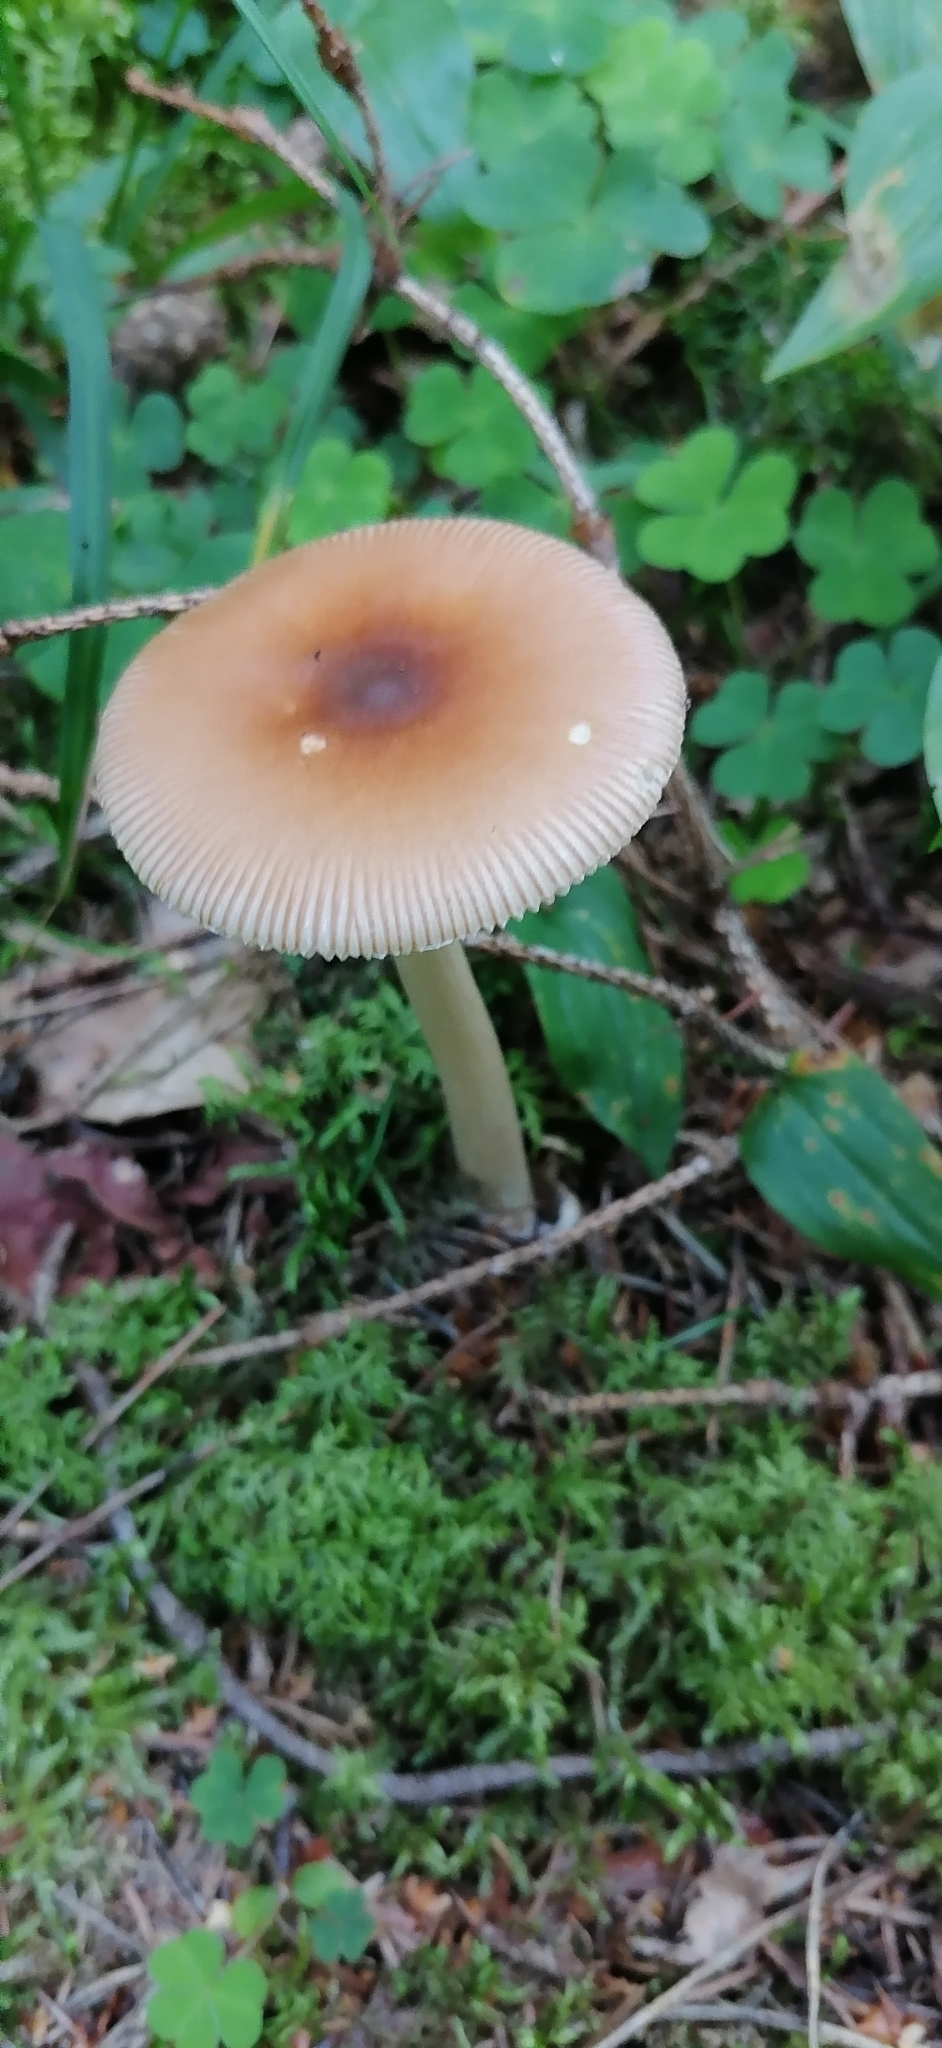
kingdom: Fungi
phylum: Basidiomycota
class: Agaricomycetes
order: Agaricales
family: Amanitaceae
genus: Amanita
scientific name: Amanita fulva
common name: Tawny grisette
